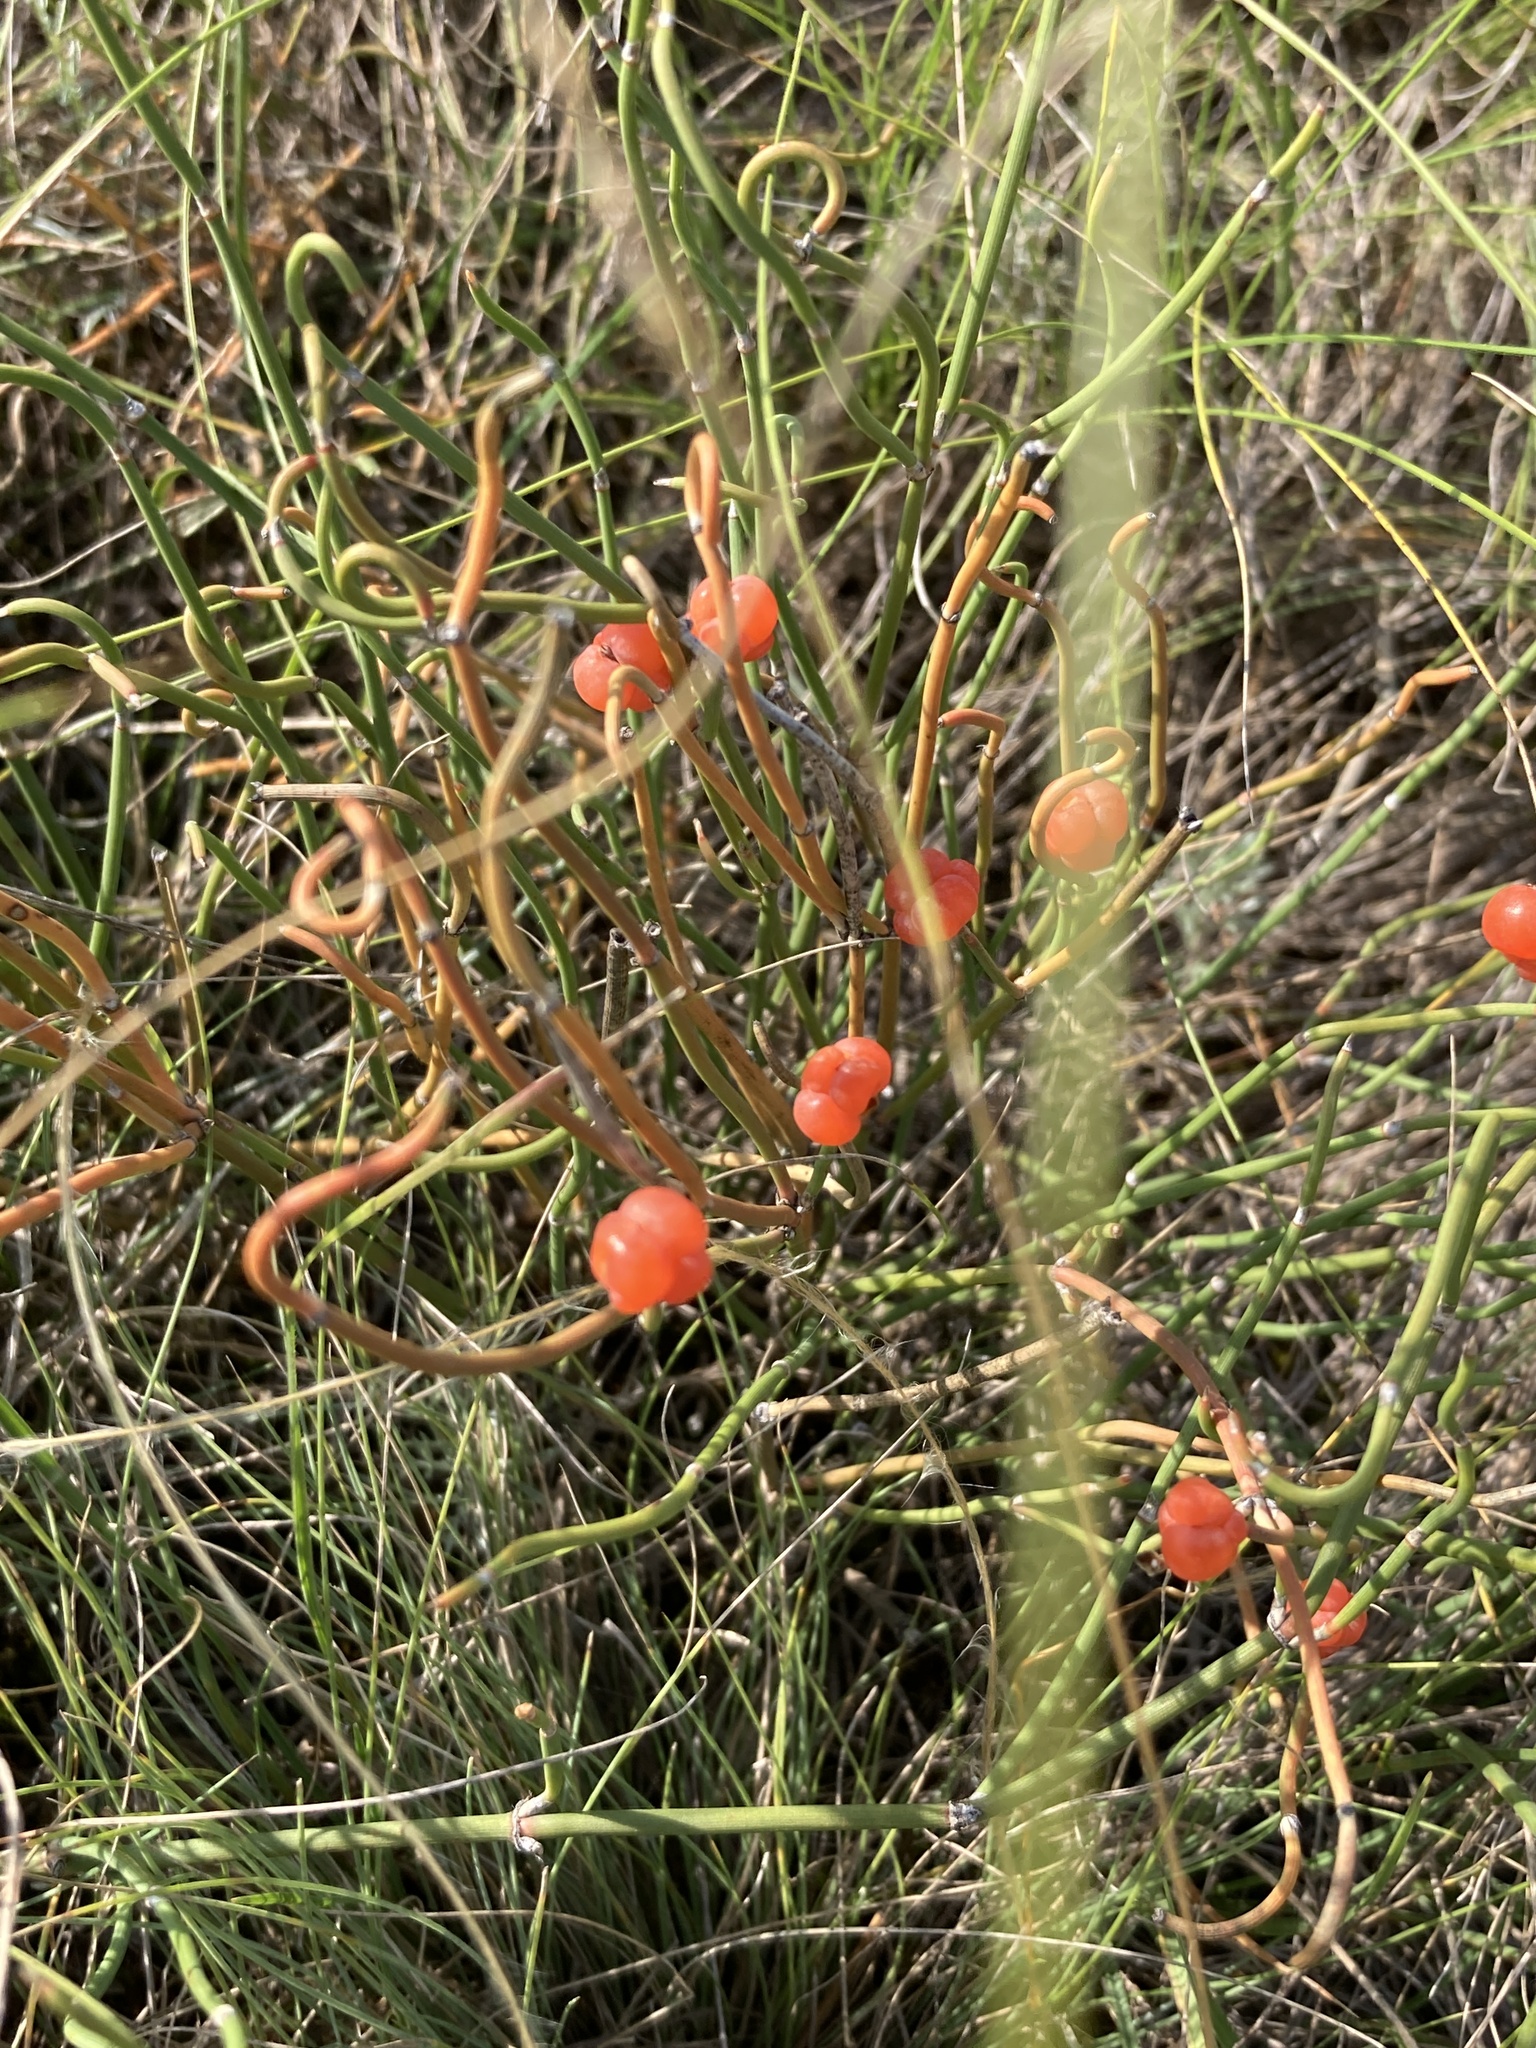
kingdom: Plantae
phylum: Tracheophyta
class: Gnetopsida
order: Ephedrales
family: Ephedraceae
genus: Ephedra
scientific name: Ephedra distachya
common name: Sea grape
